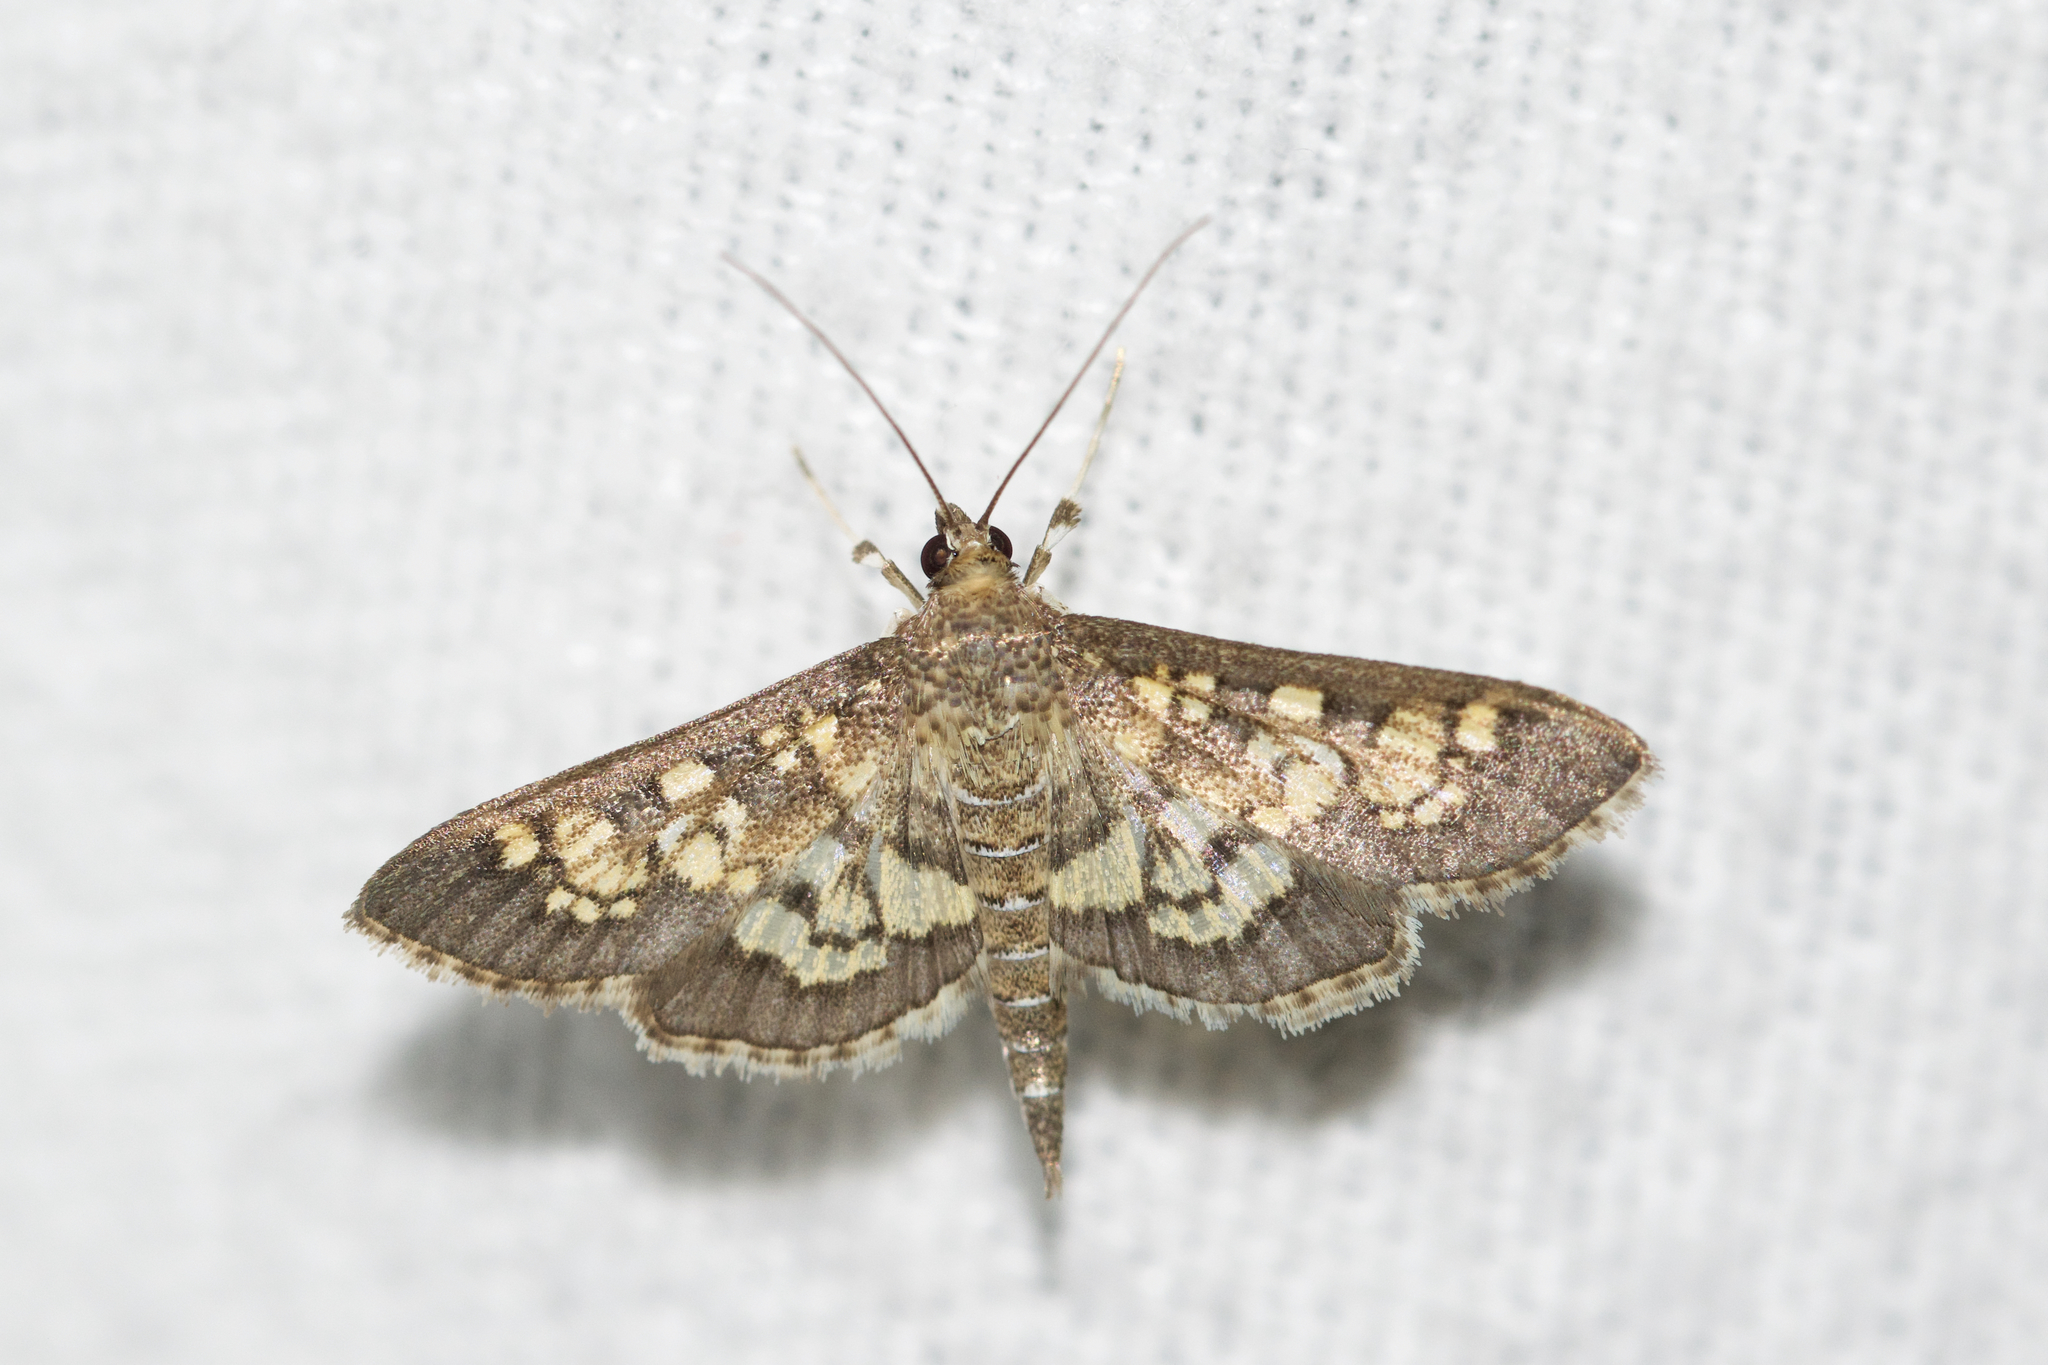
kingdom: Animalia
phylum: Arthropoda
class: Insecta
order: Lepidoptera
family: Crambidae
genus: Epipagis
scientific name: Epipagis adipaloides
